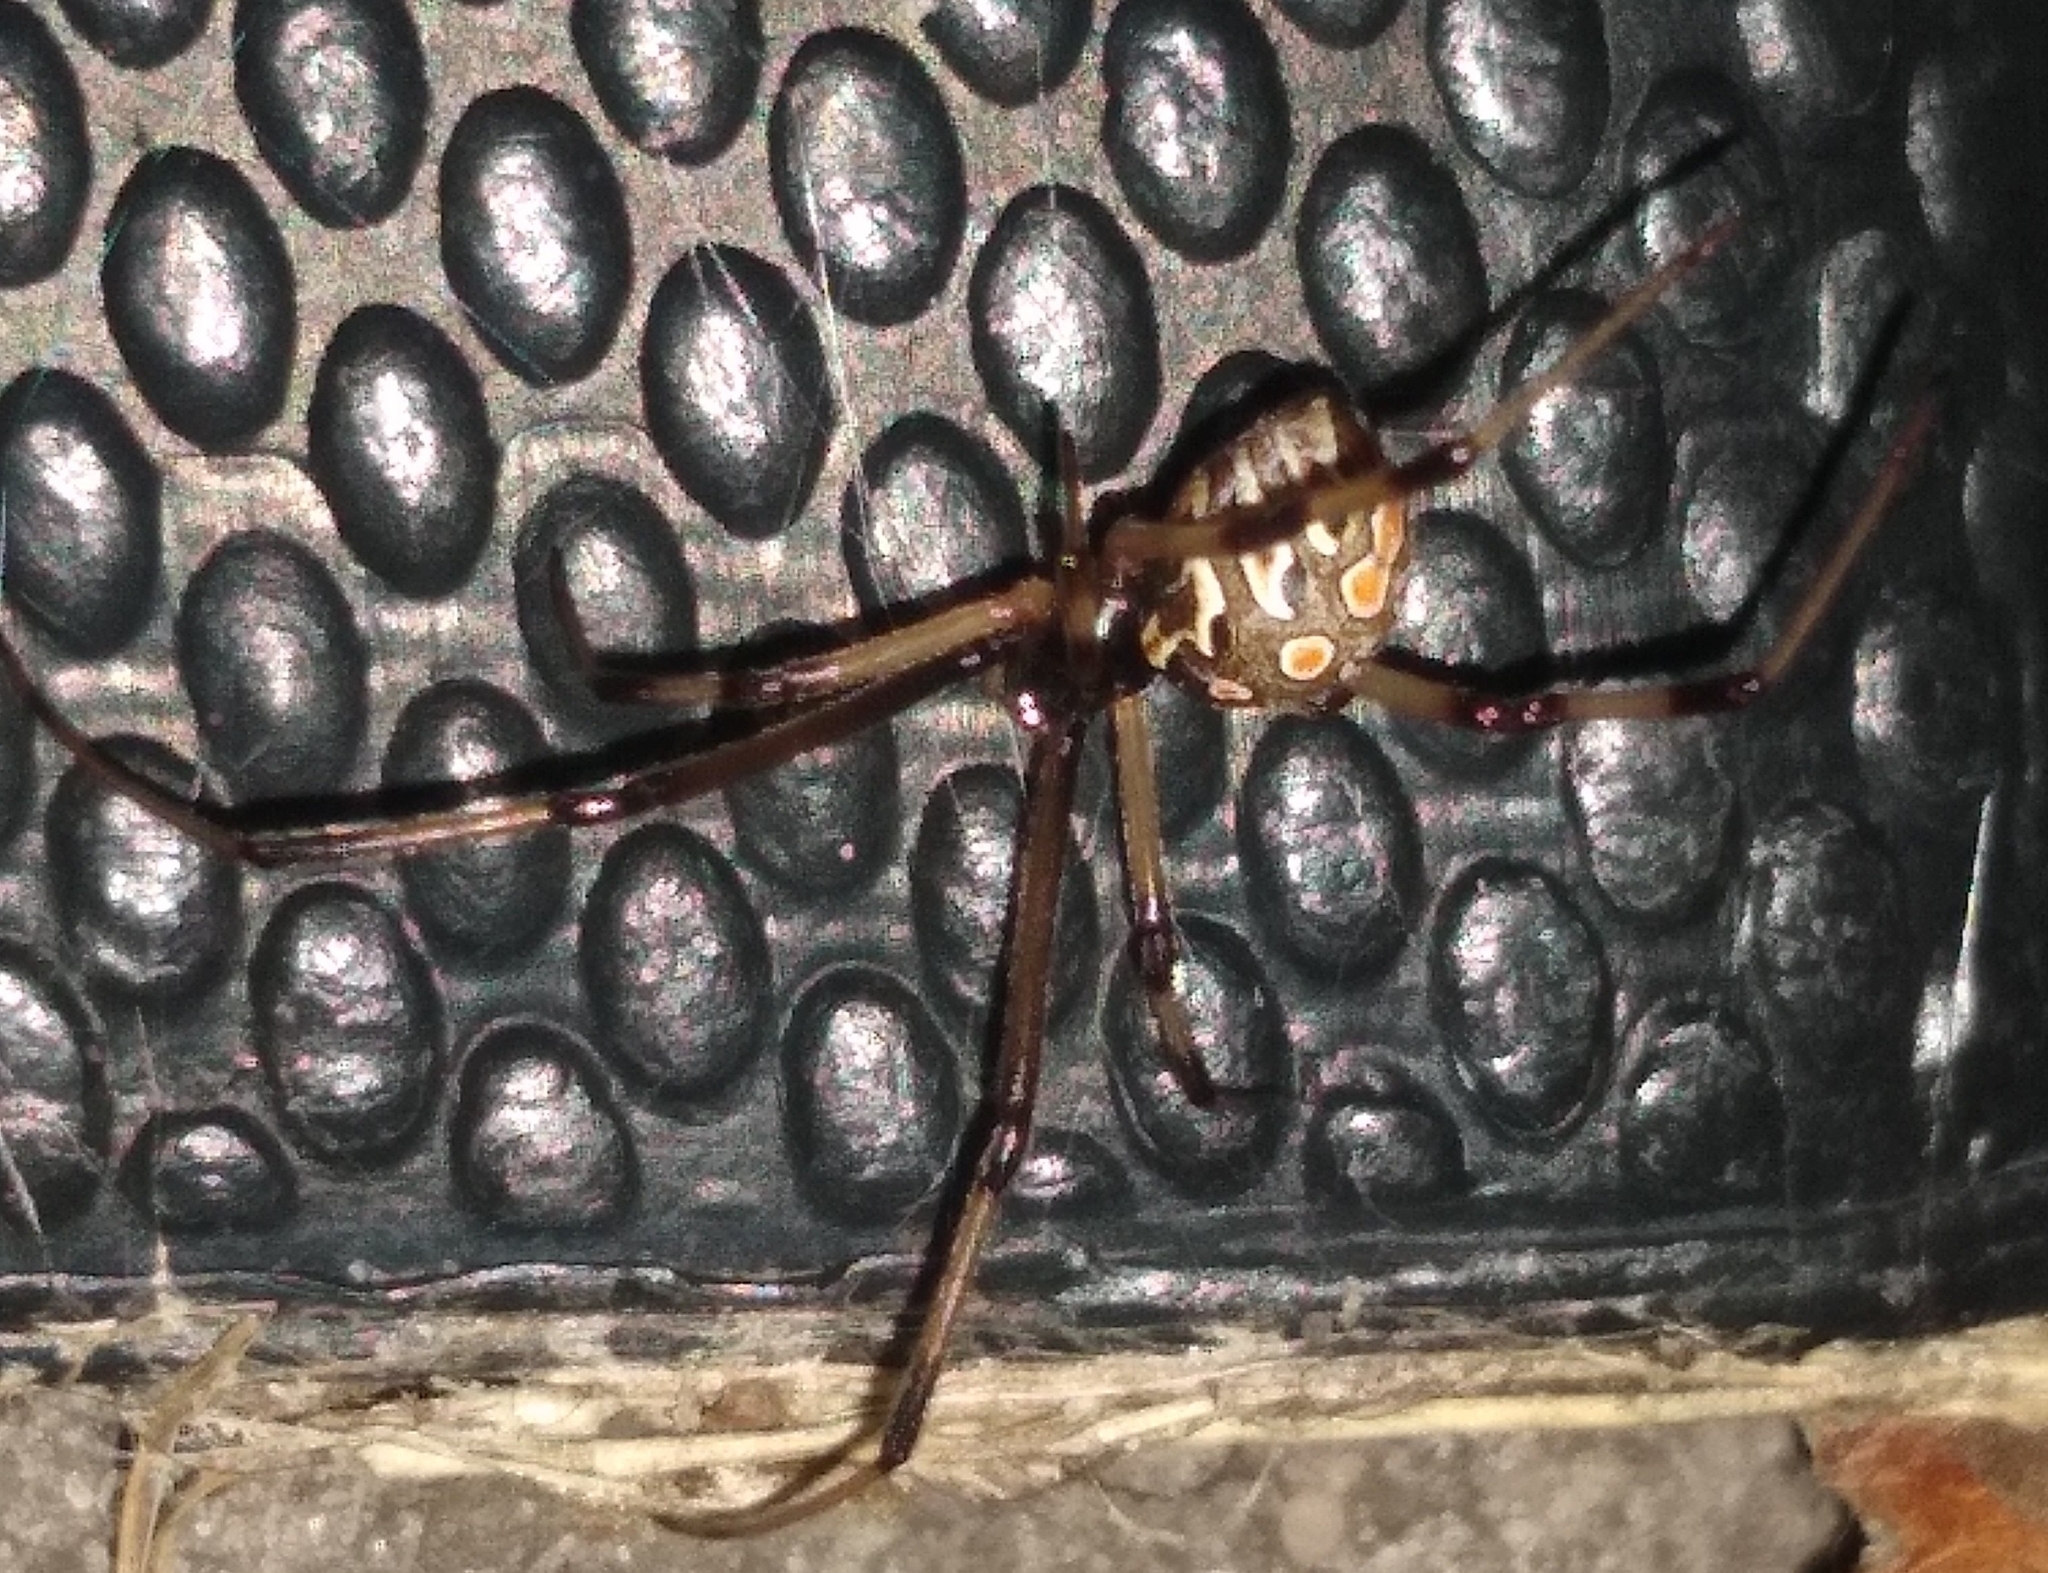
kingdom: Animalia
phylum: Arthropoda
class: Arachnida
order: Araneae
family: Theridiidae
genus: Latrodectus
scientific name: Latrodectus geometricus
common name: Brown widow spider
